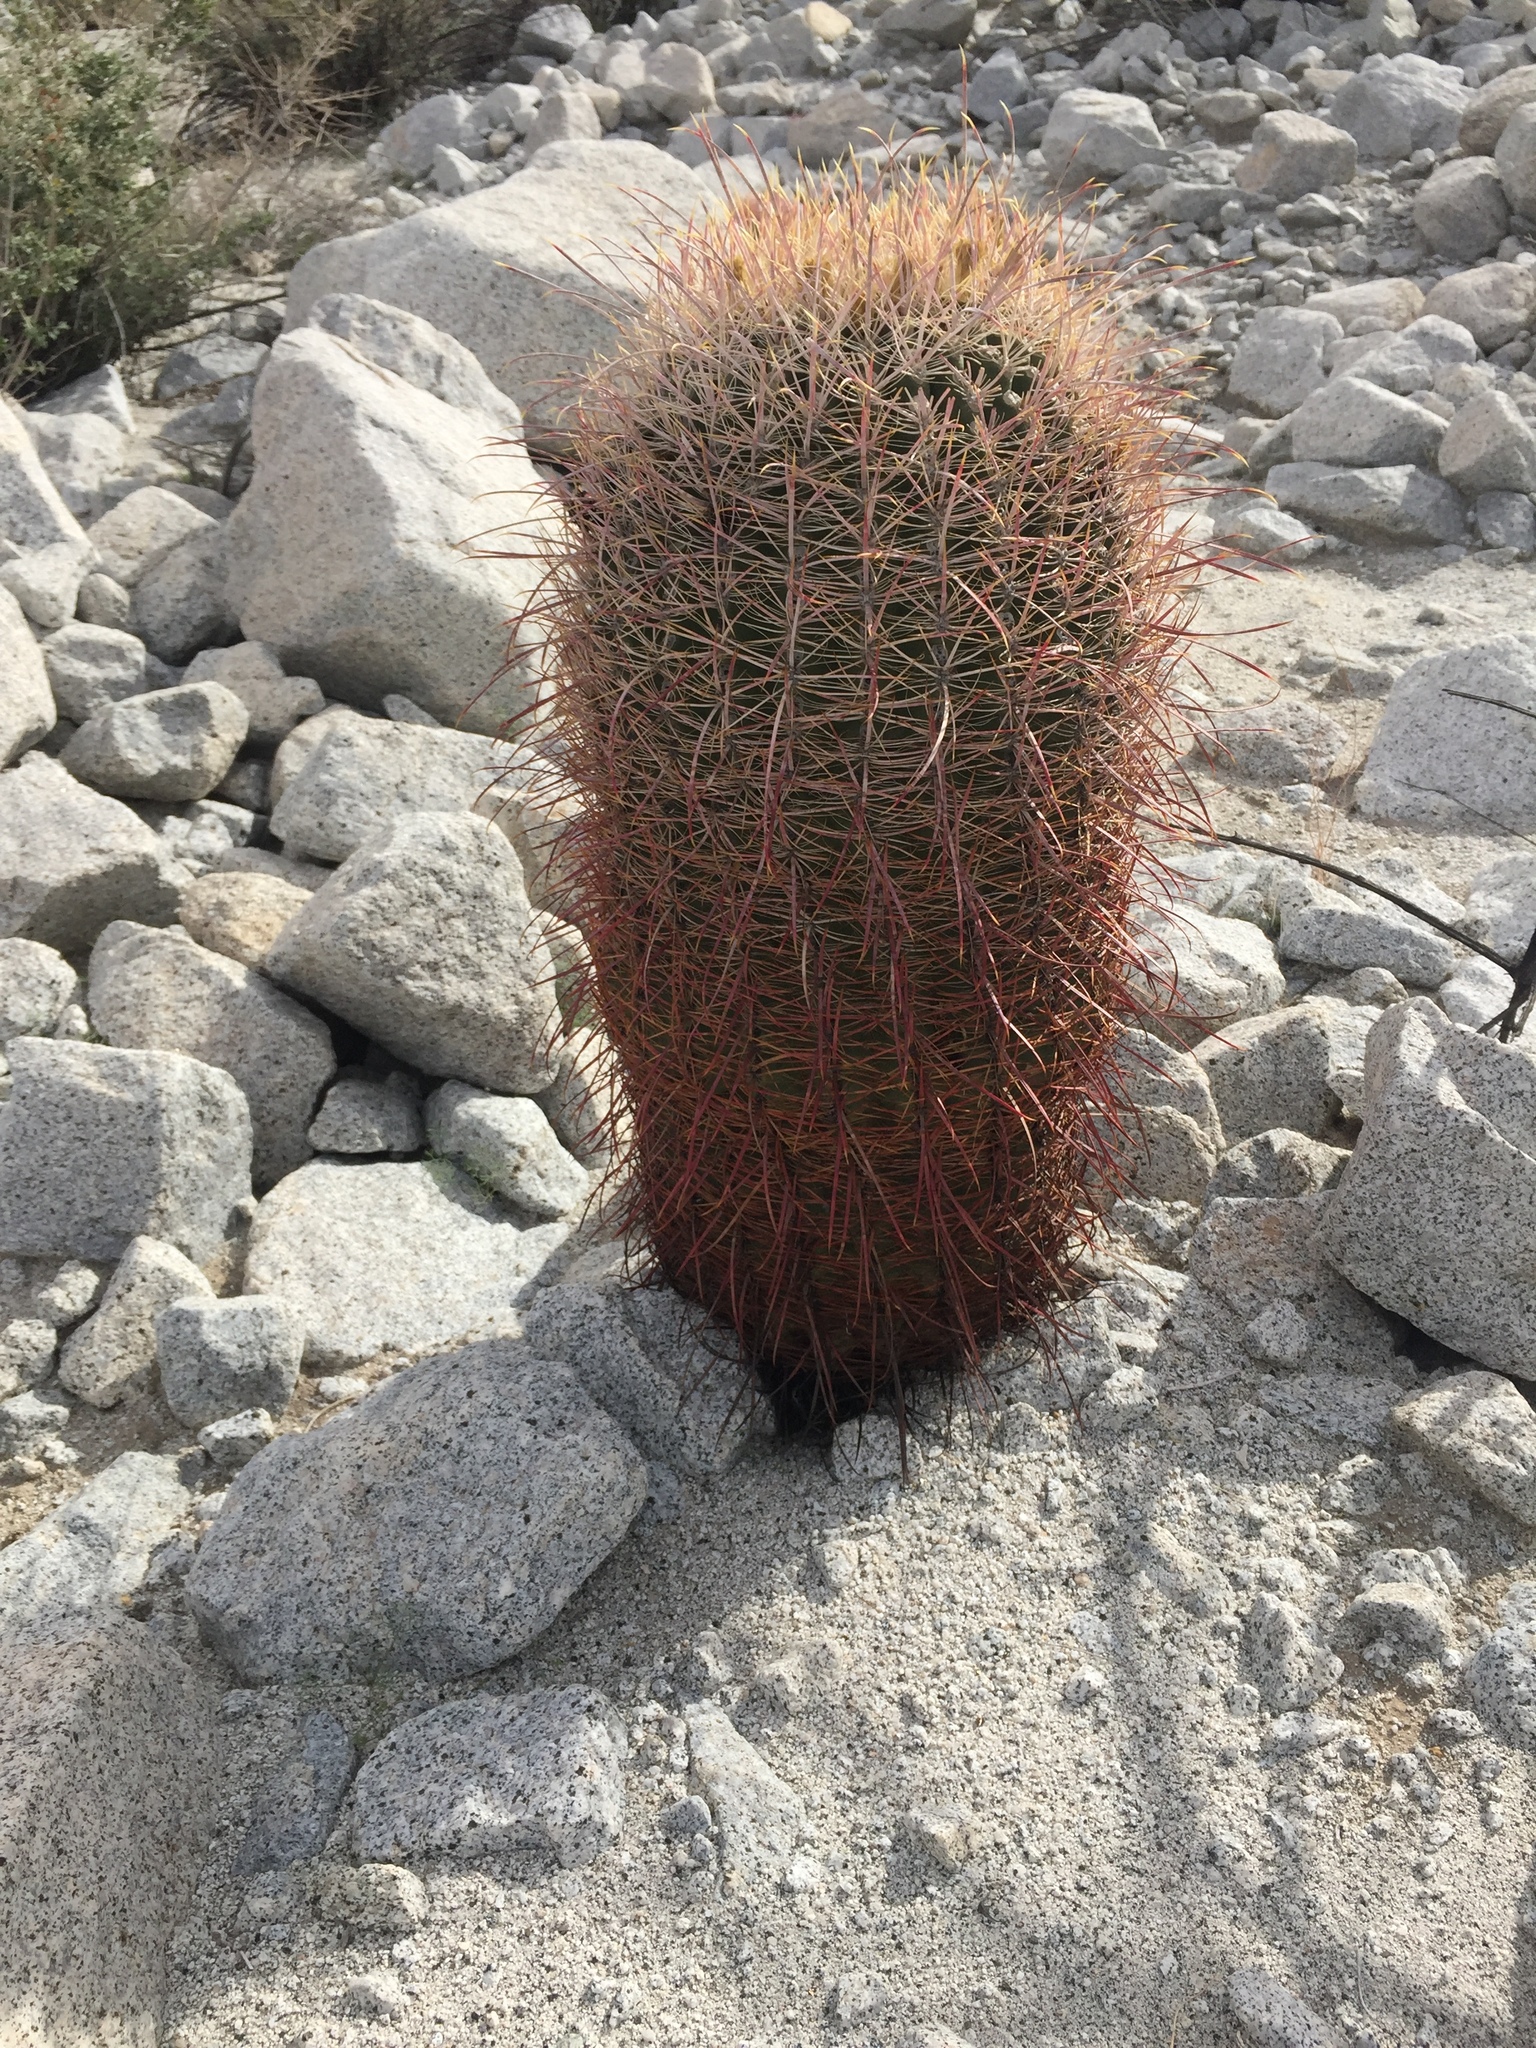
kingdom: Plantae
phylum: Tracheophyta
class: Magnoliopsida
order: Caryophyllales
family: Cactaceae
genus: Ferocactus
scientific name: Ferocactus cylindraceus
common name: California barrel cactus
